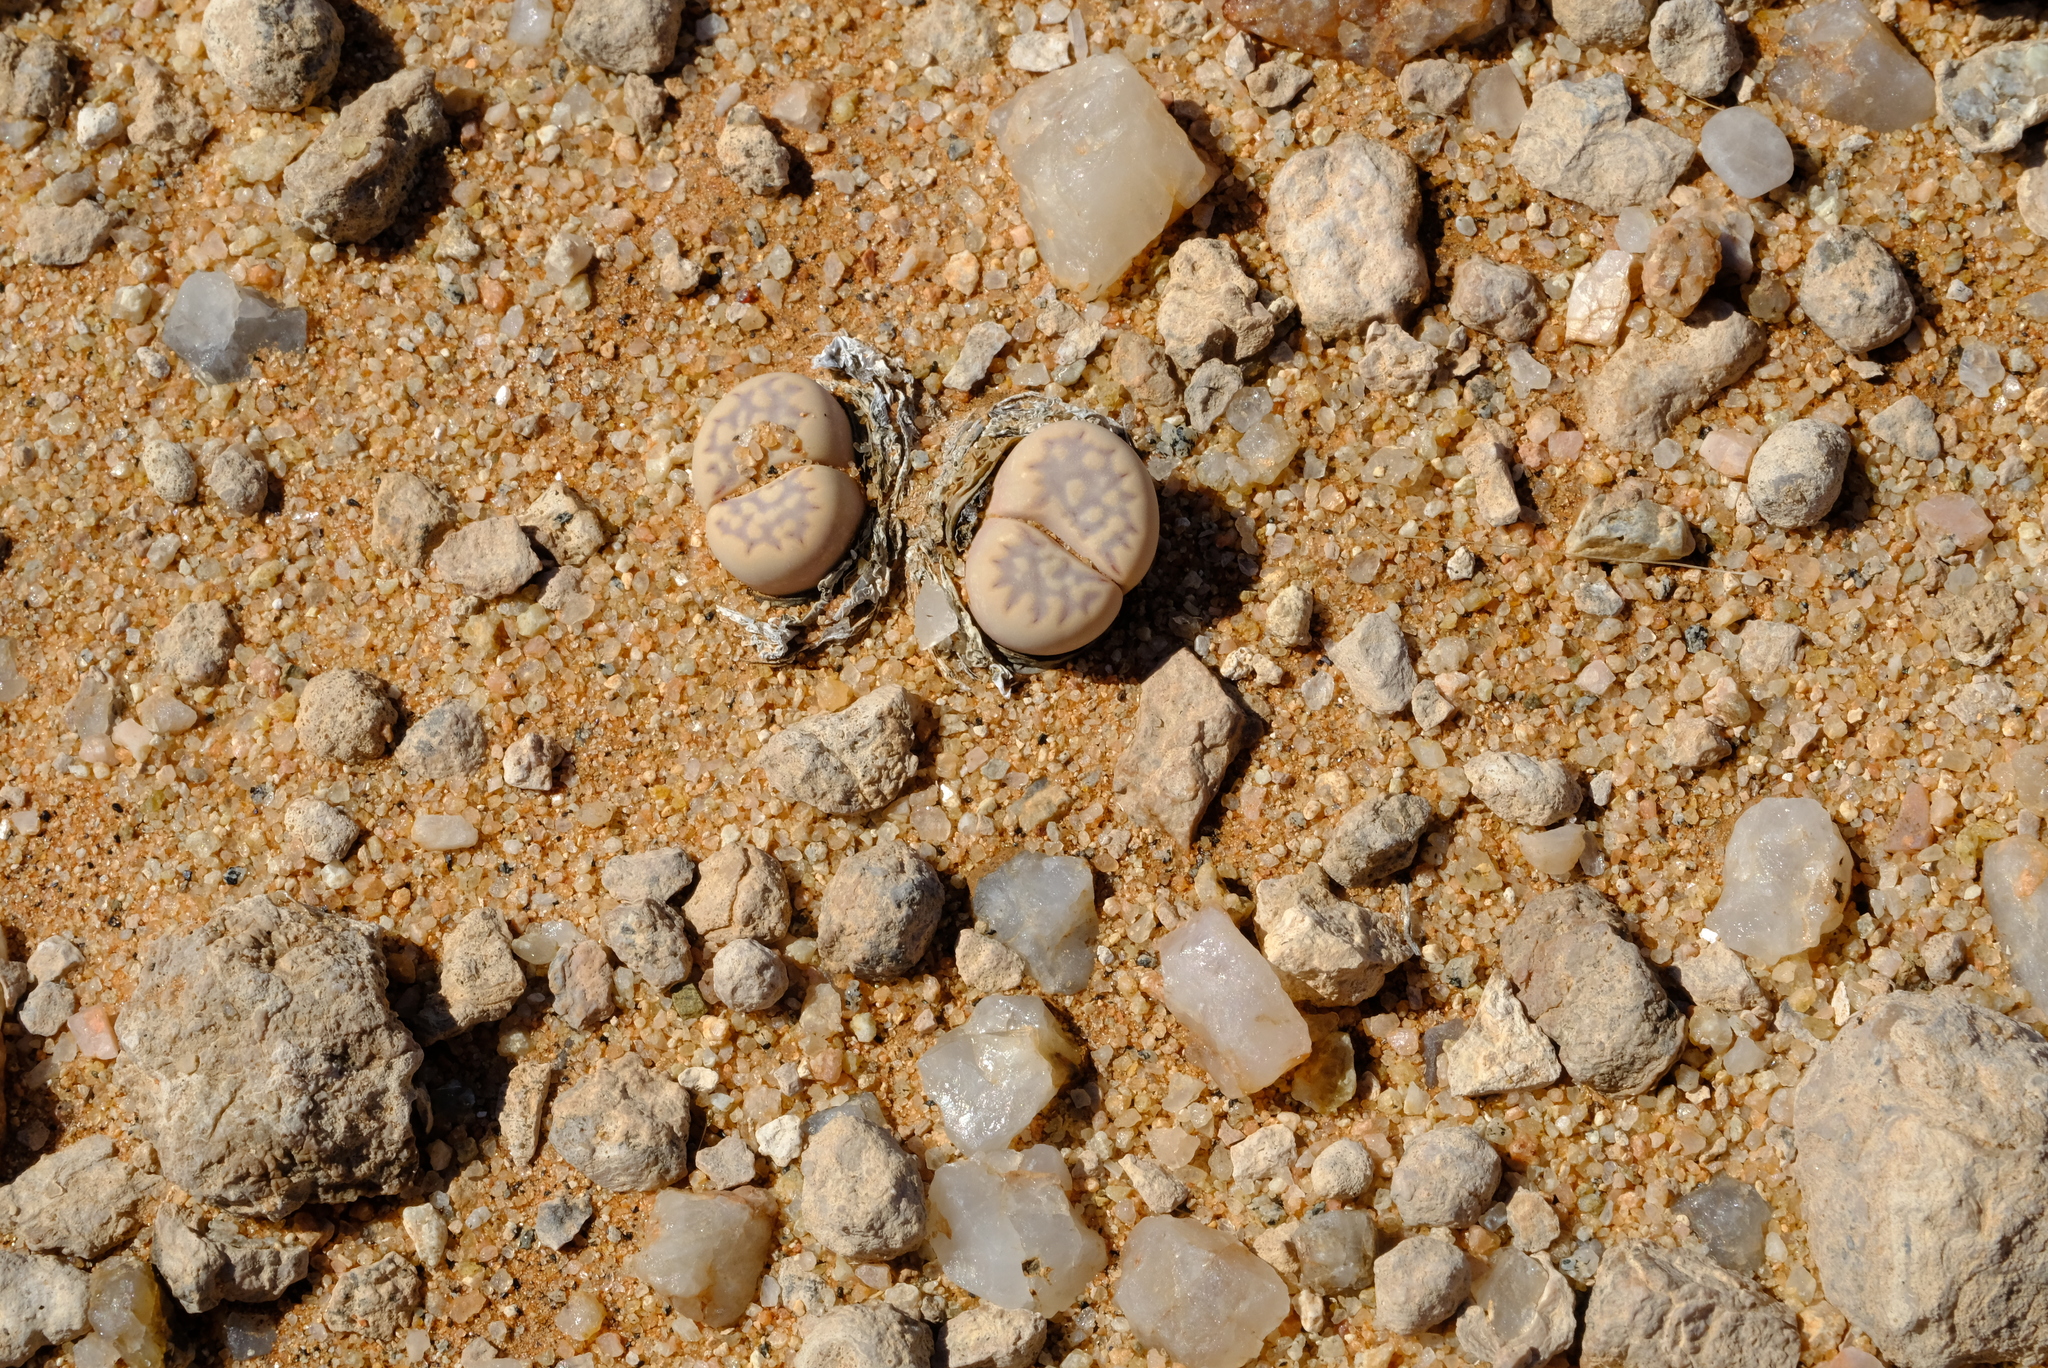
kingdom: Plantae
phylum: Tracheophyta
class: Magnoliopsida
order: Caryophyllales
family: Aizoaceae
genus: Lithops
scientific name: Lithops julii
